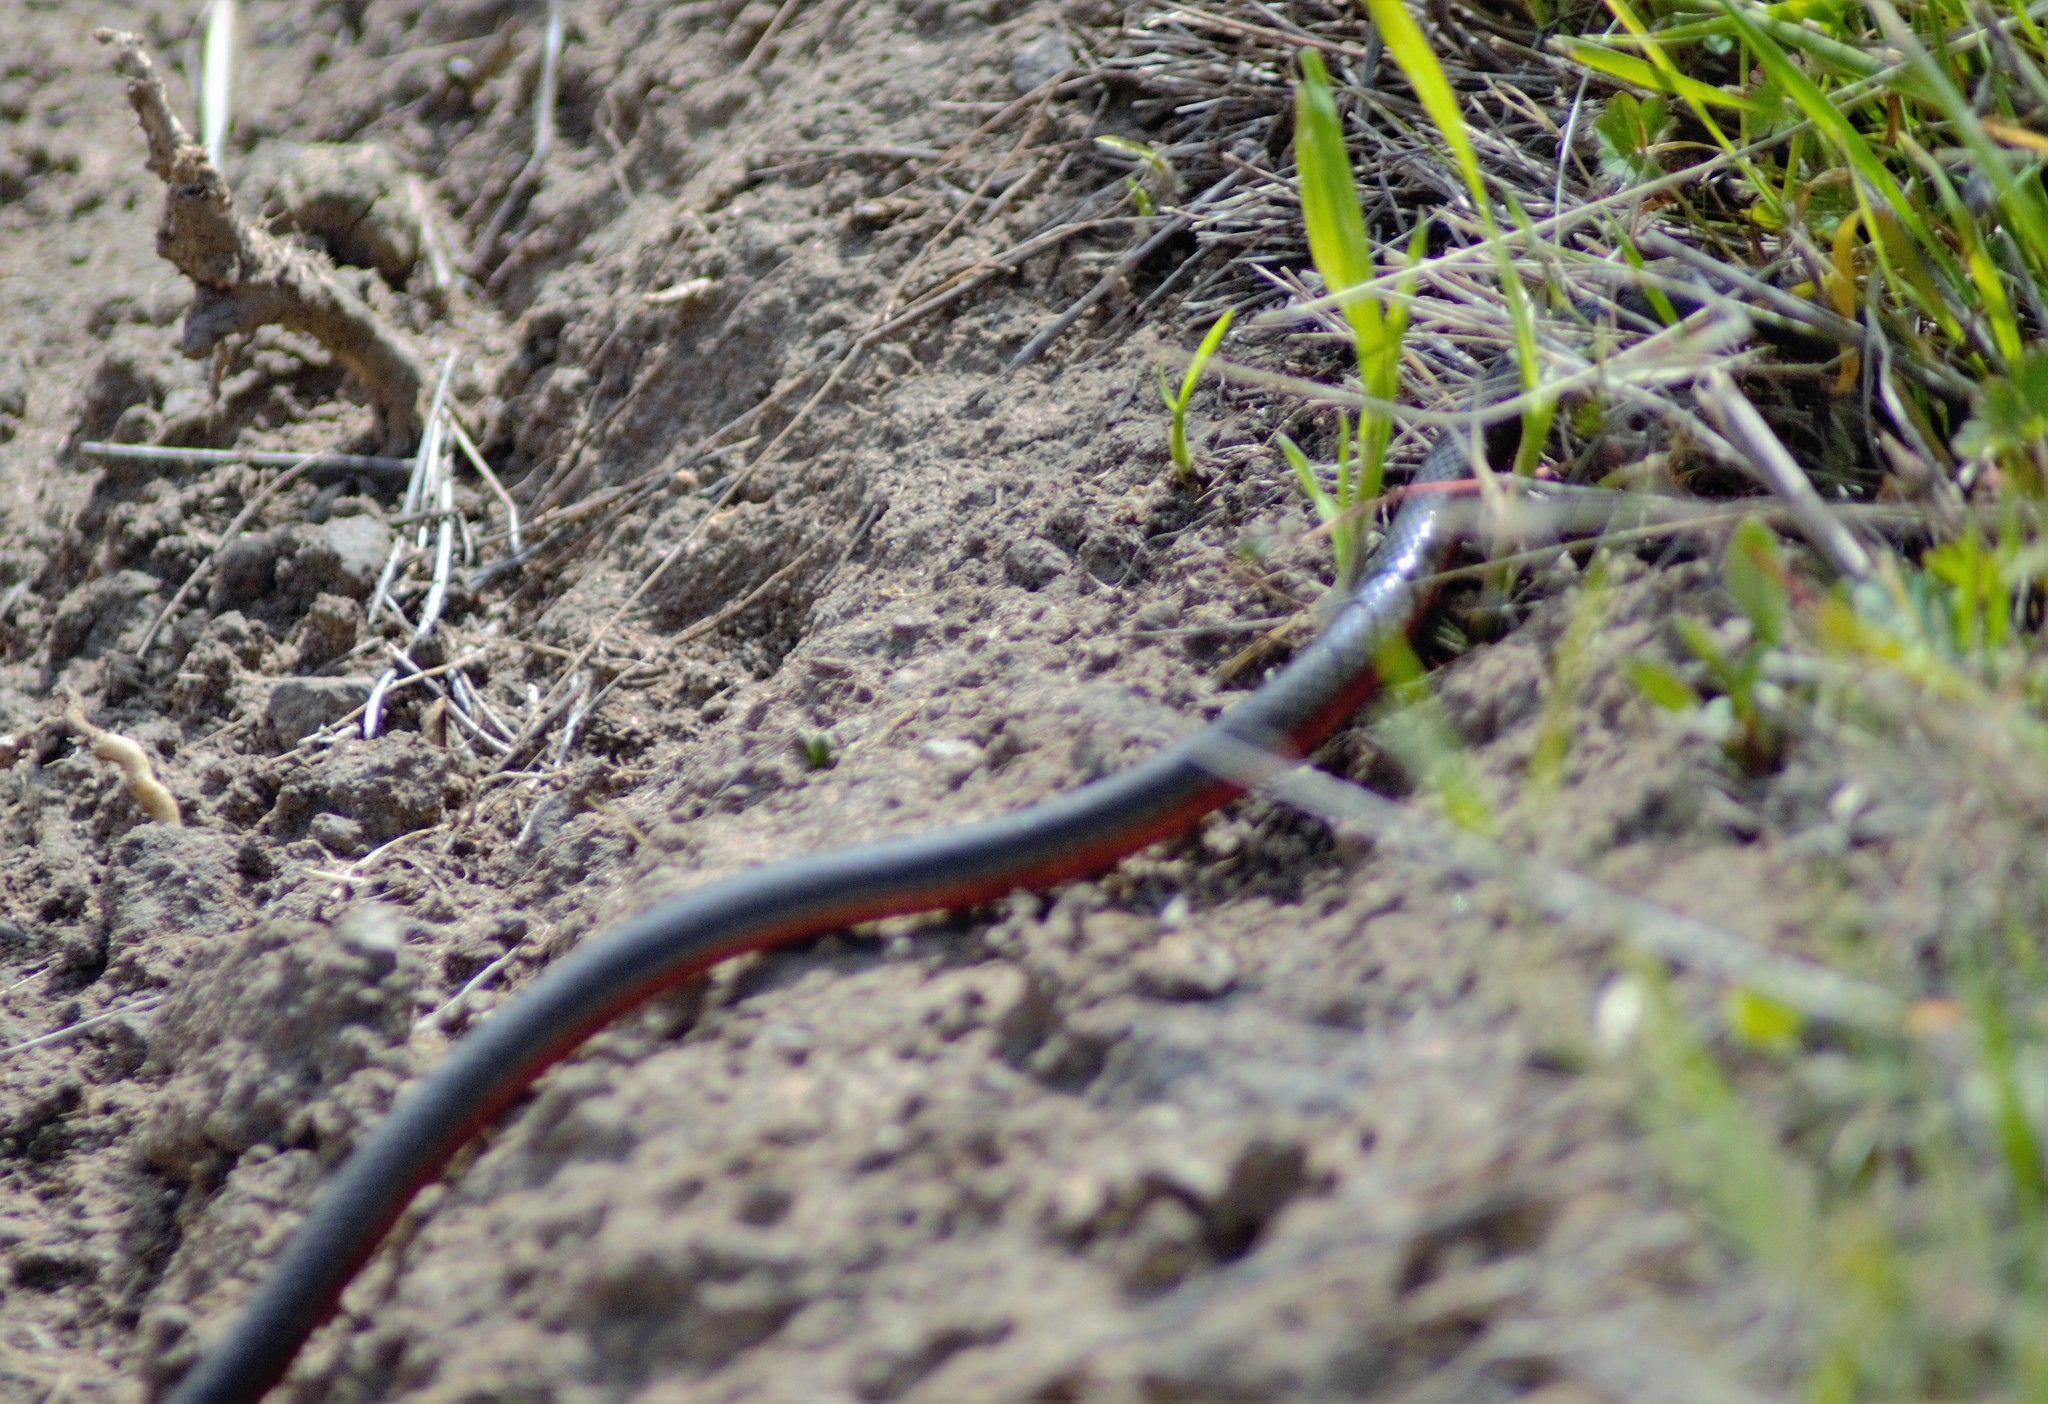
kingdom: Animalia
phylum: Chordata
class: Squamata
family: Colubridae
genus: Diadophis
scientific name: Diadophis punctatus
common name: Ringneck snake
